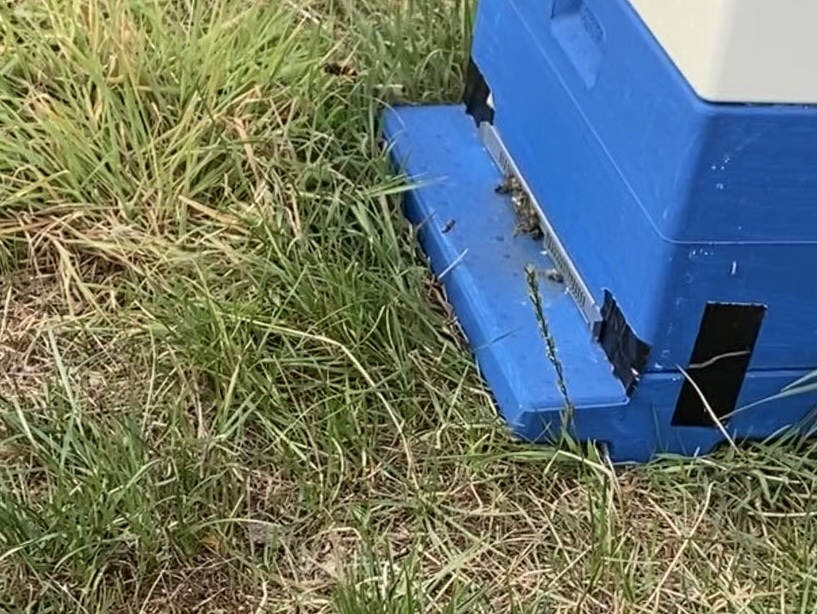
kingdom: Animalia
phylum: Arthropoda
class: Insecta
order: Hymenoptera
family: Vespidae
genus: Vespa
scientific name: Vespa velutina
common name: Asian hornet
